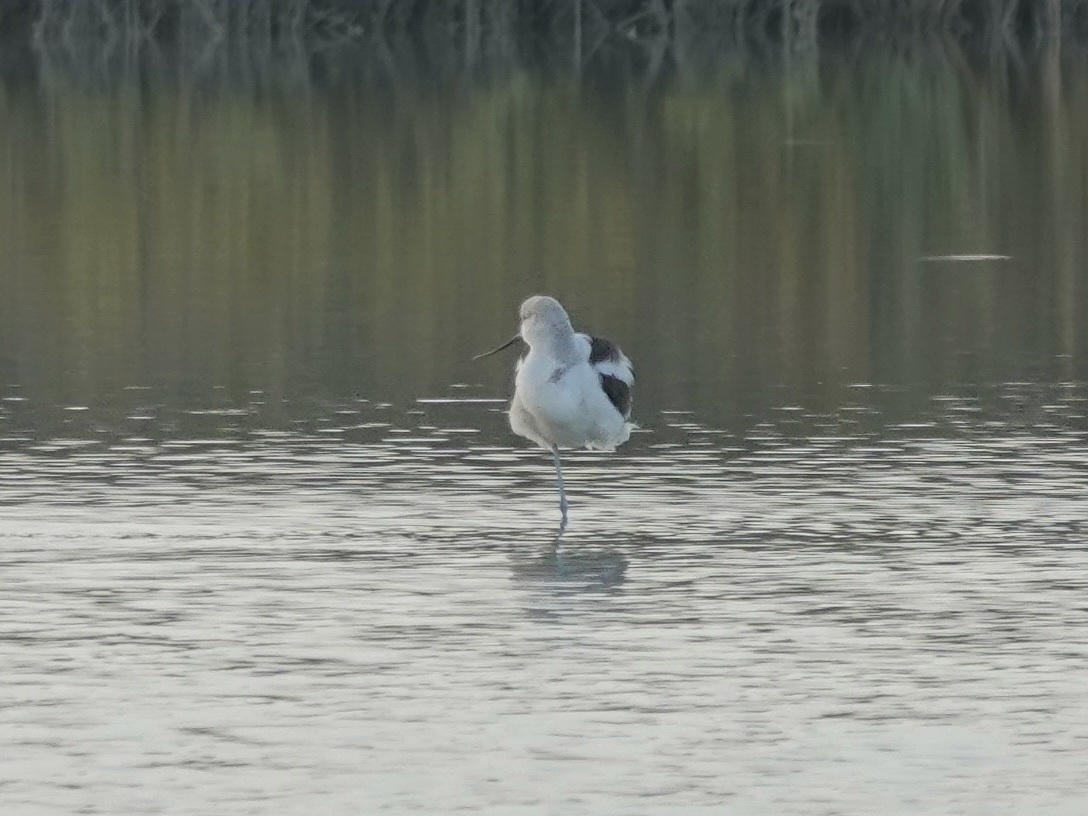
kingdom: Animalia
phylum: Chordata
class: Aves
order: Charadriiformes
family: Recurvirostridae
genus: Recurvirostra
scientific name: Recurvirostra americana
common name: American avocet
